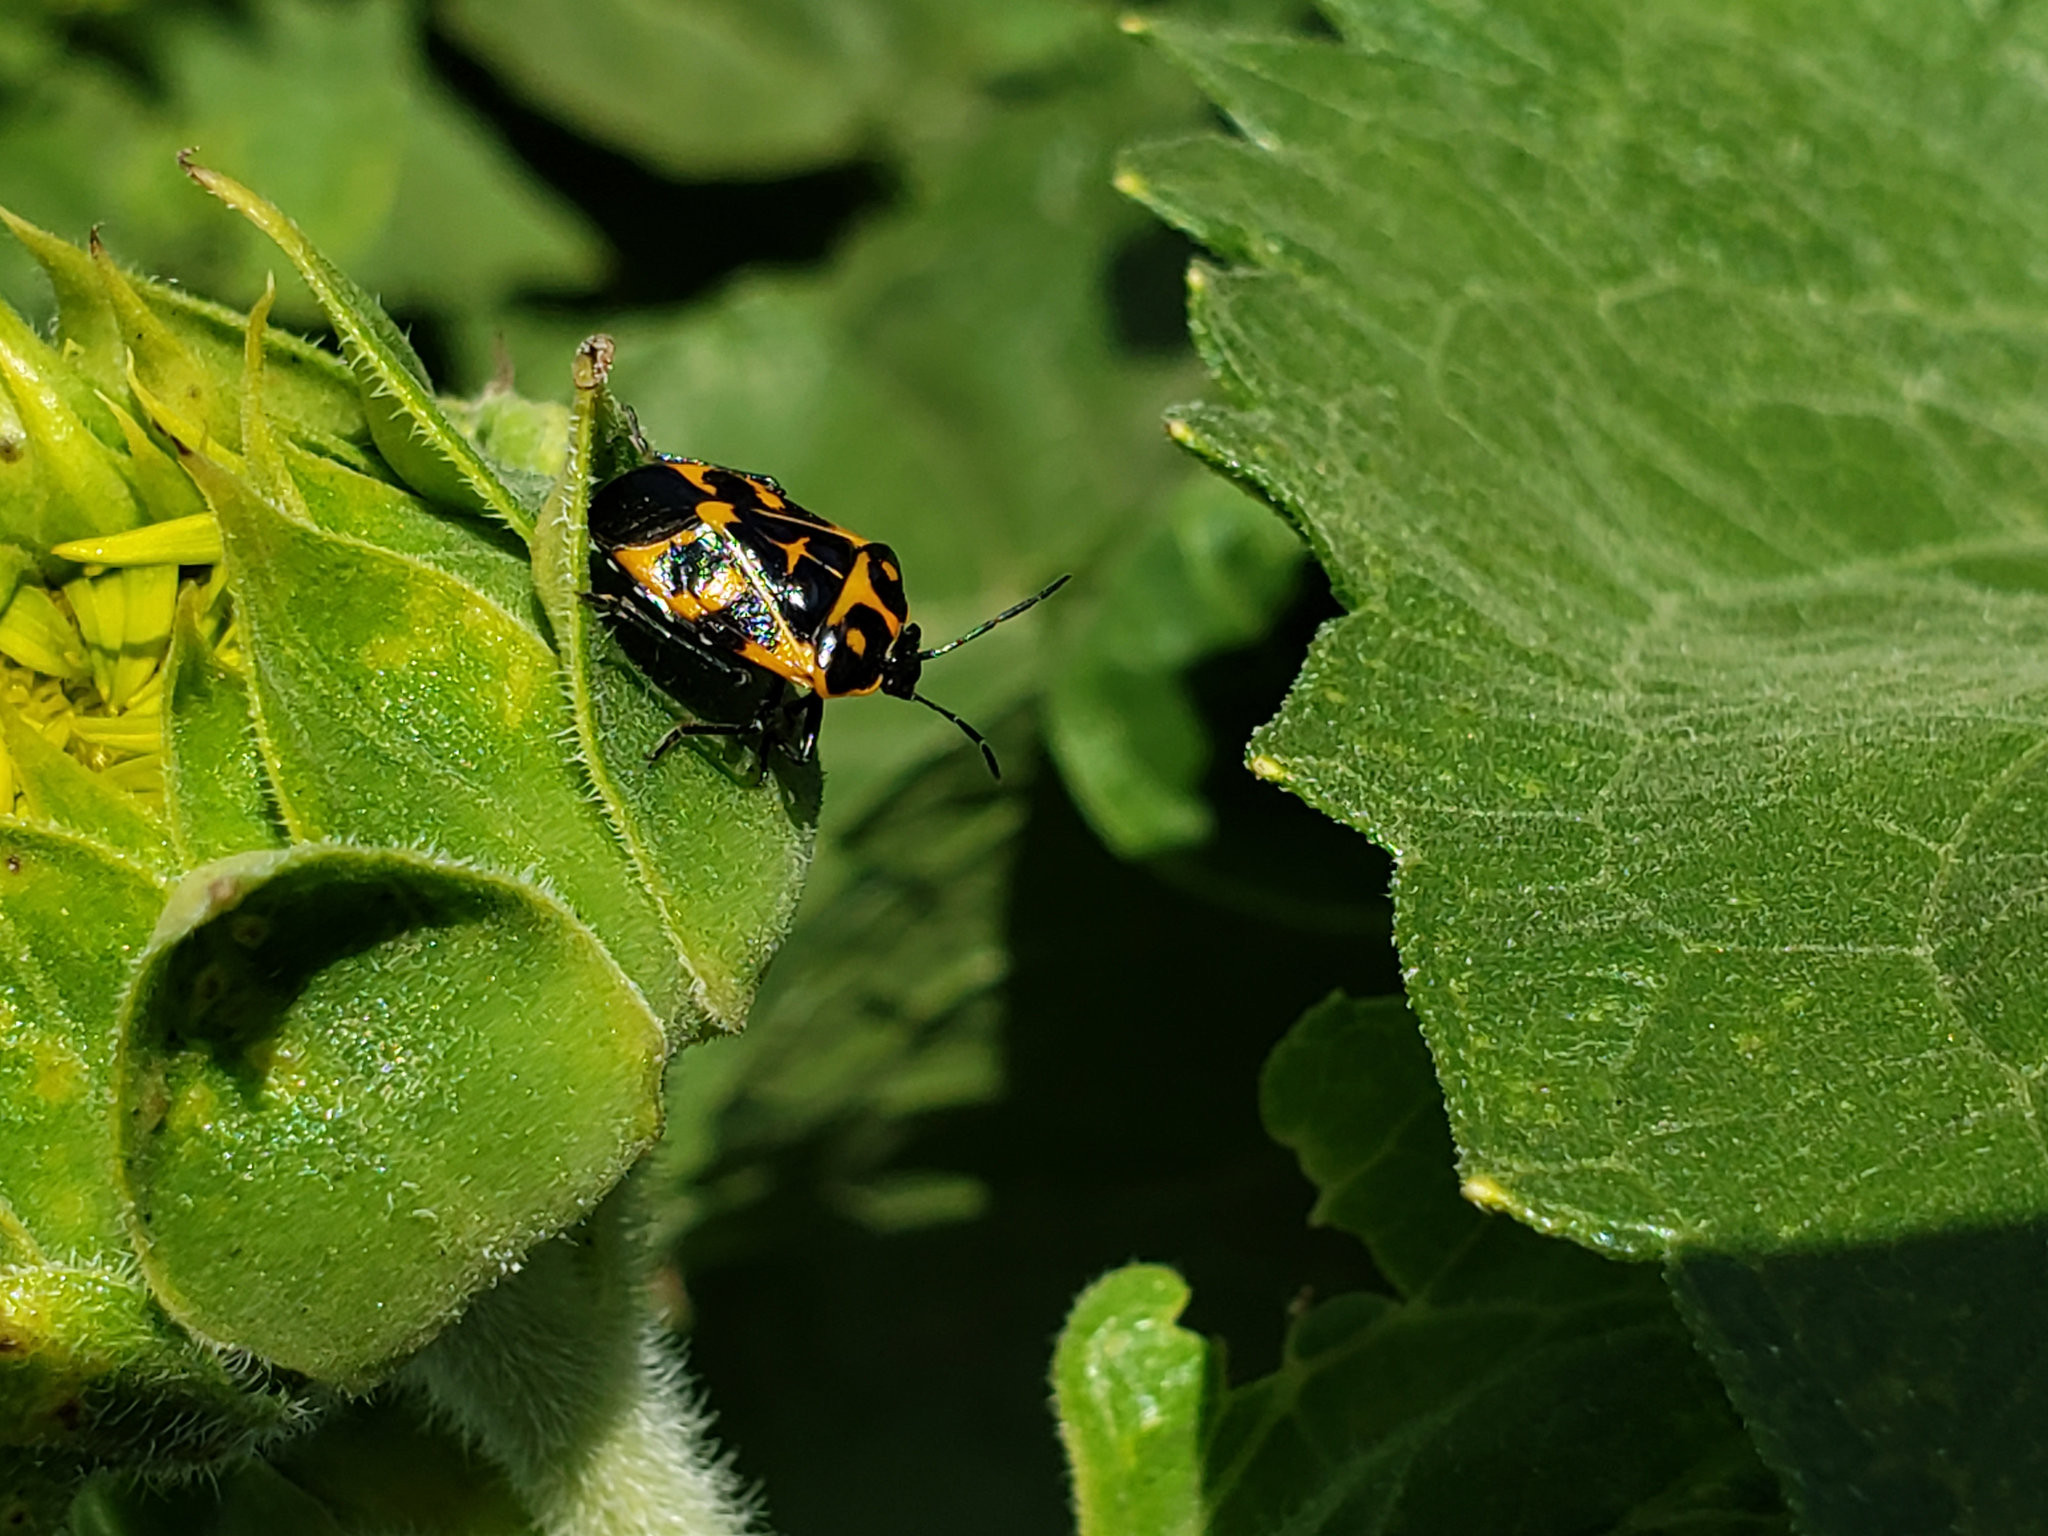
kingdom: Animalia
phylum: Arthropoda
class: Insecta
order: Hemiptera
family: Pentatomidae
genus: Murgantia
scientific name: Murgantia histrionica
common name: Harlequin bug
